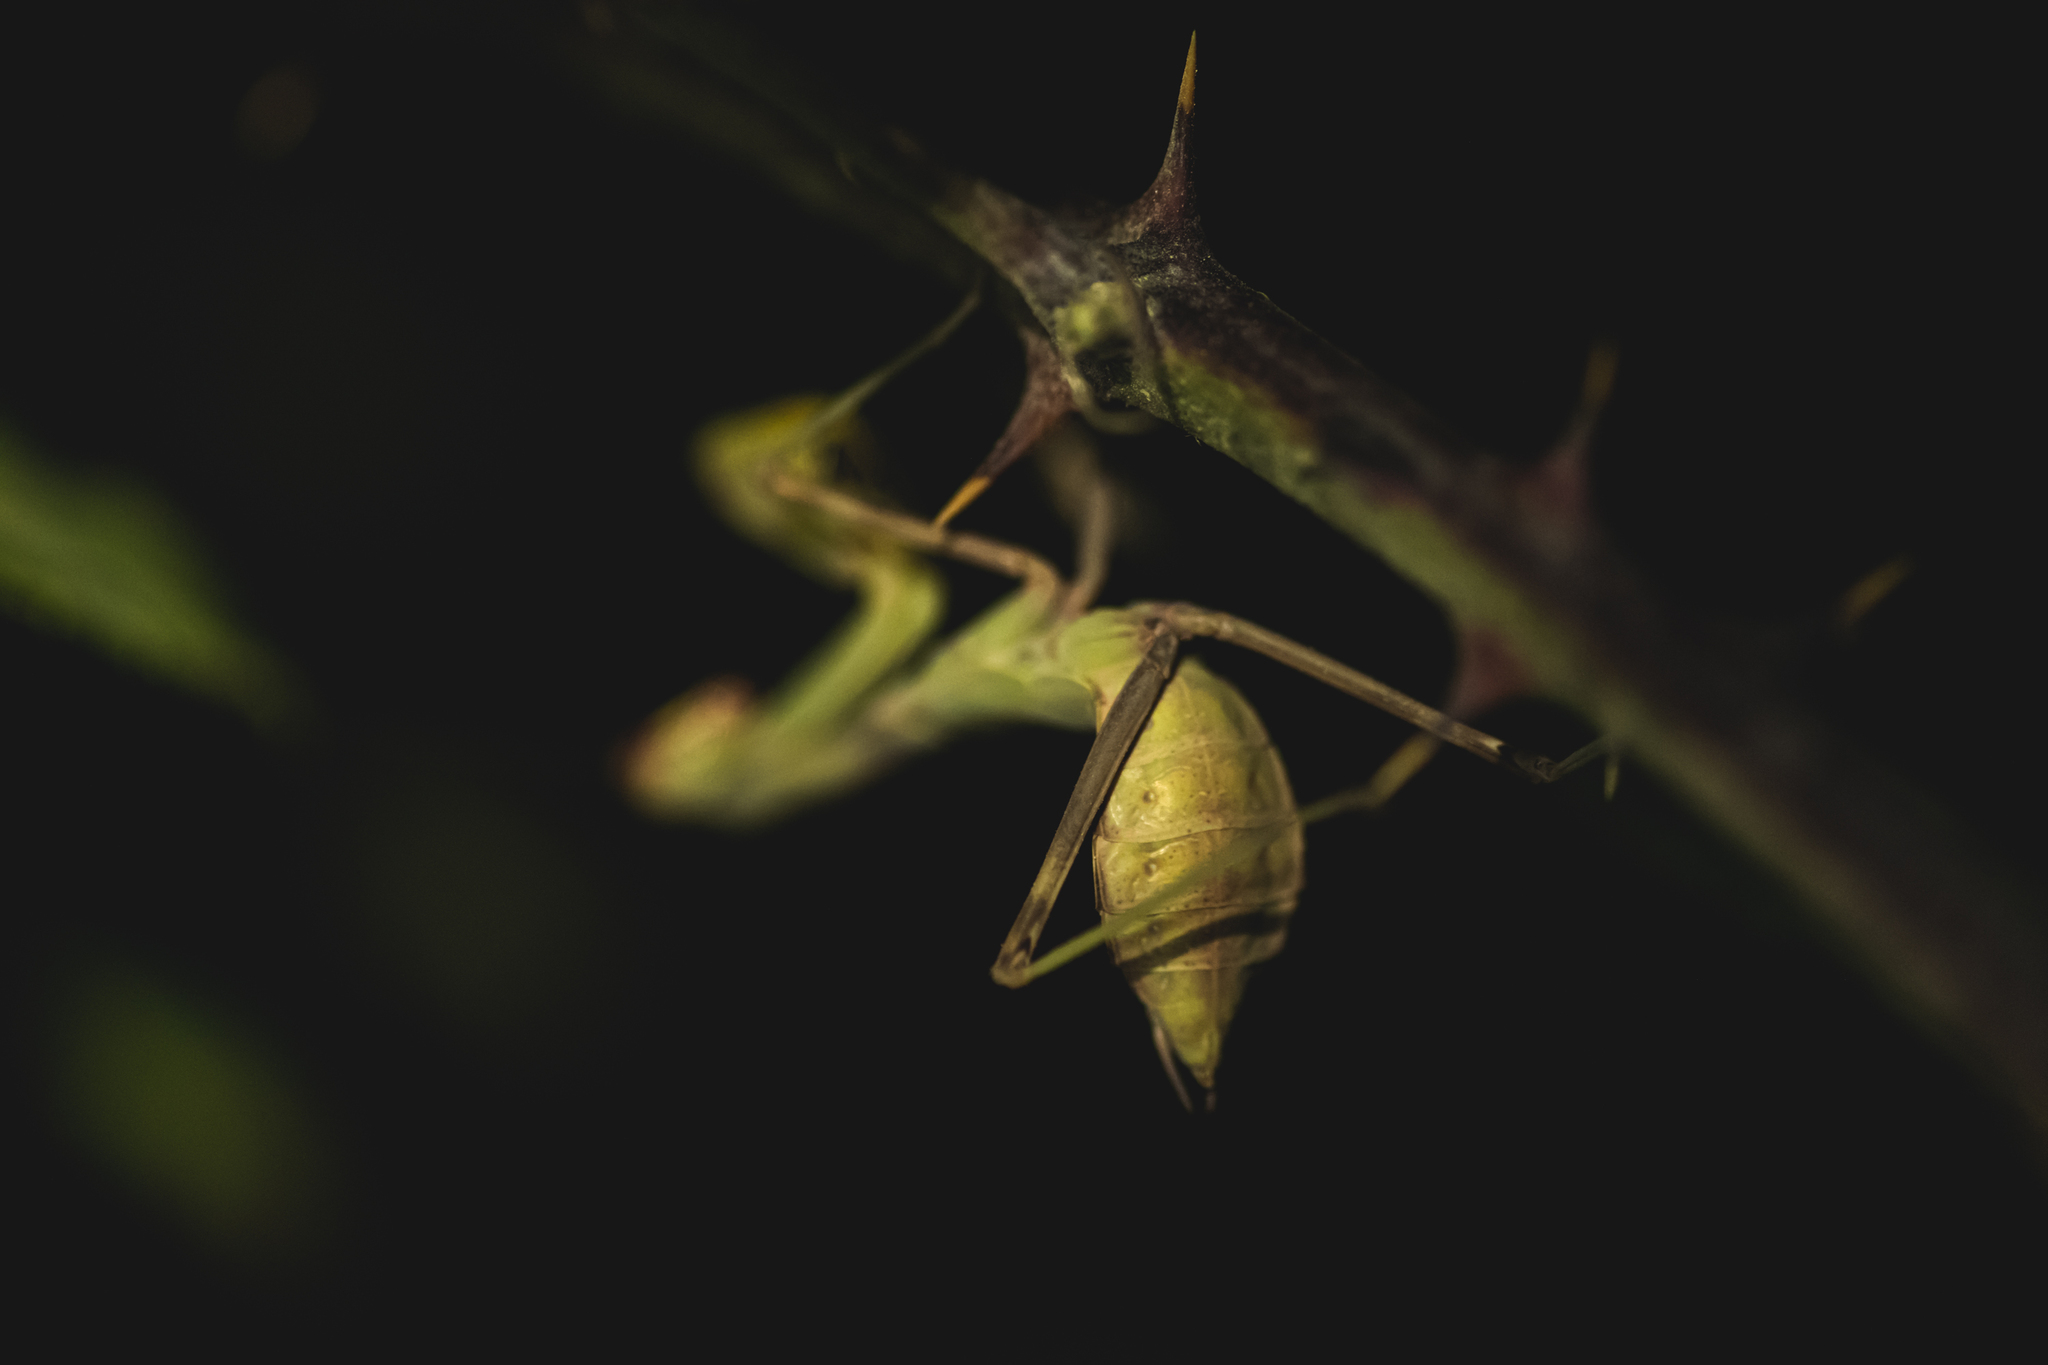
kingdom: Animalia
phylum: Arthropoda
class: Insecta
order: Mantodea
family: Mantidae
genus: Hierodula
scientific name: Hierodula transcaucasica
